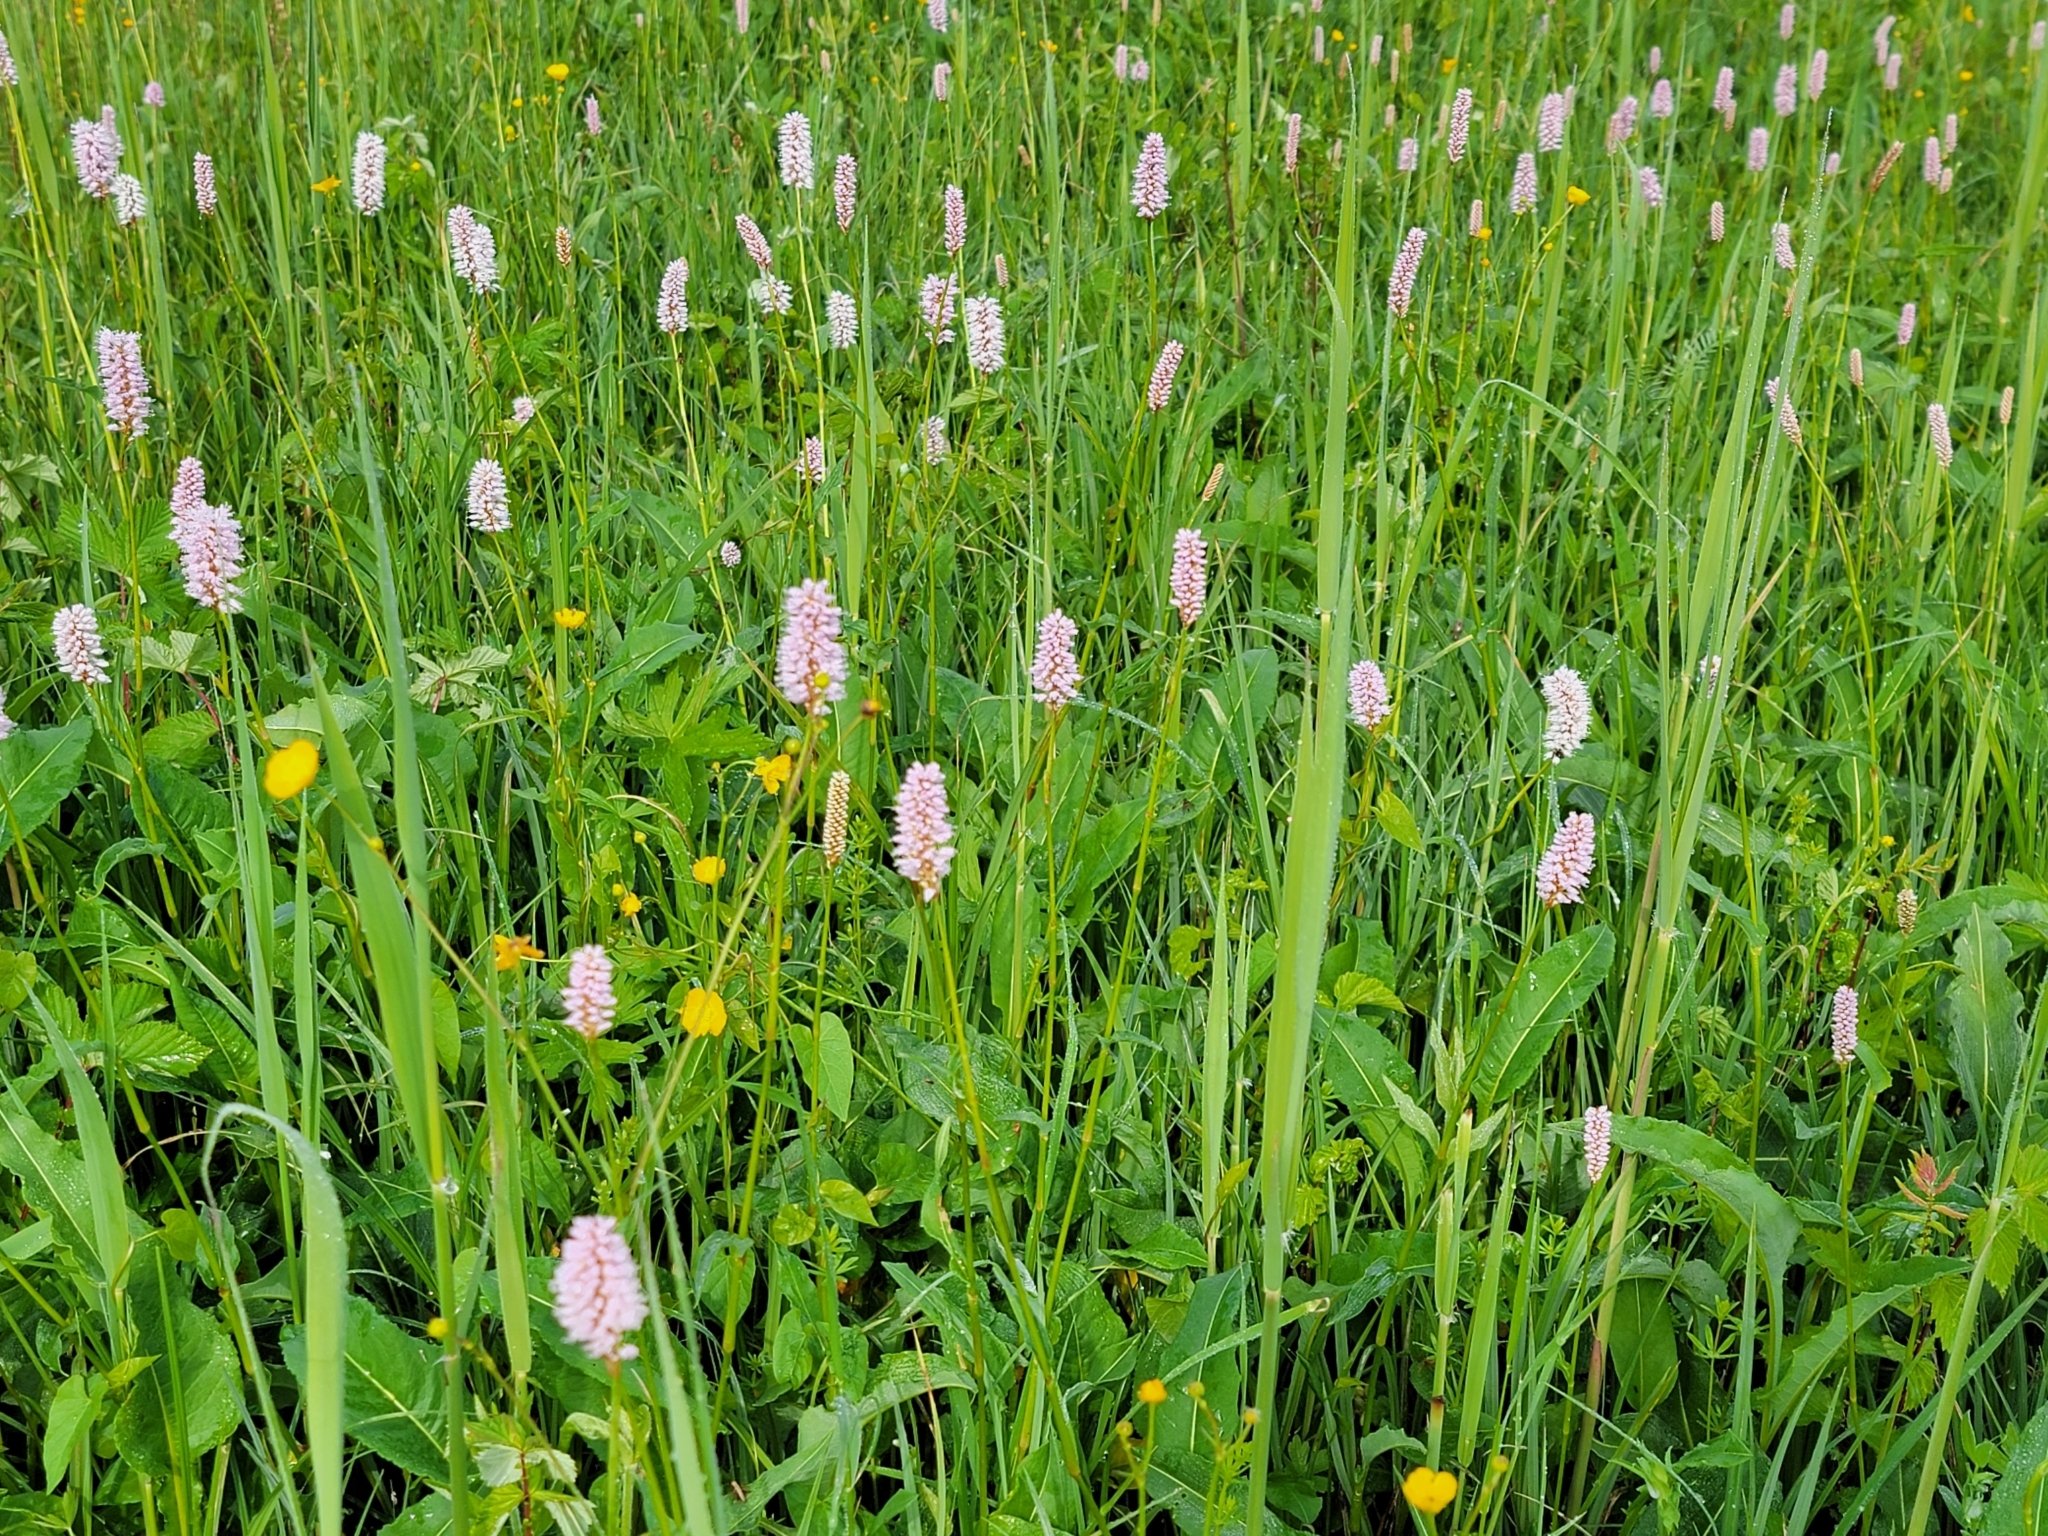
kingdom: Plantae
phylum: Tracheophyta
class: Magnoliopsida
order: Caryophyllales
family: Polygonaceae
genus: Bistorta
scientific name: Bistorta officinalis
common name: Common bistort
